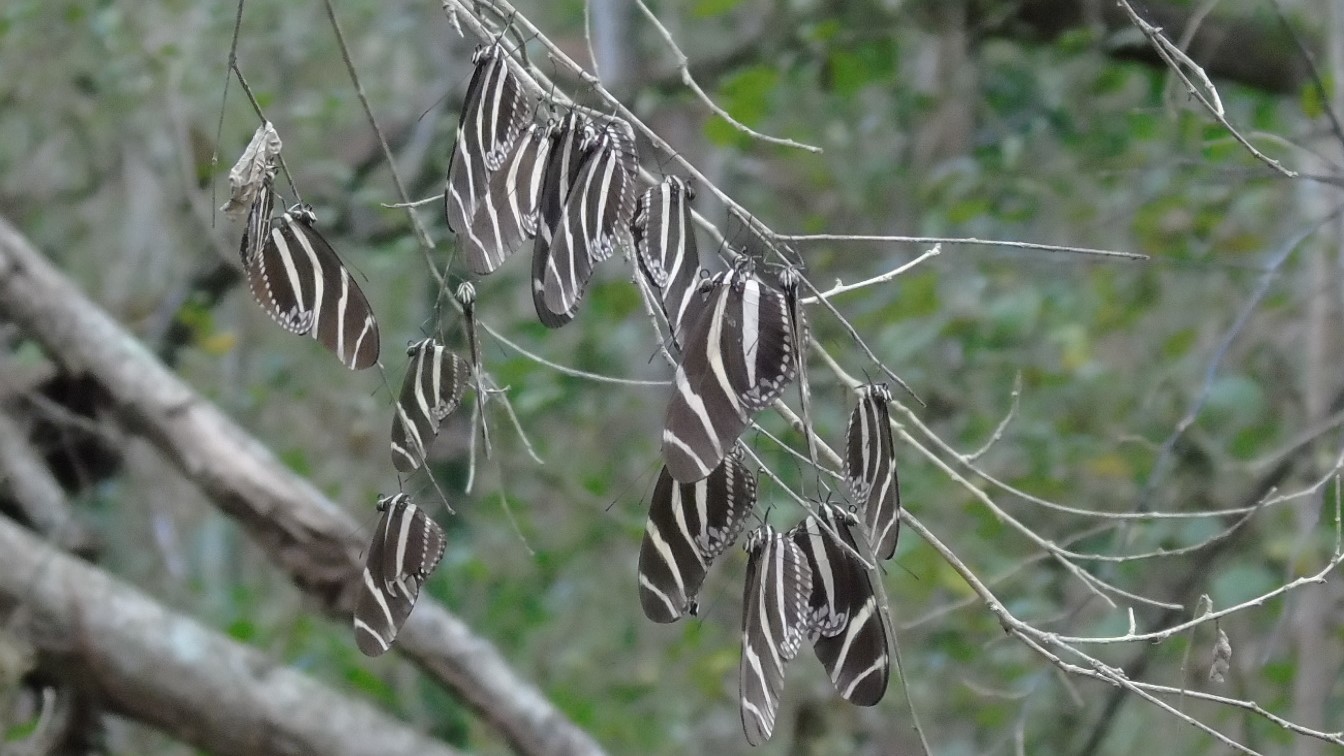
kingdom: Animalia
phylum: Arthropoda
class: Insecta
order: Lepidoptera
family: Nymphalidae
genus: Heliconius
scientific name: Heliconius charithonia
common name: Zebra long wing
